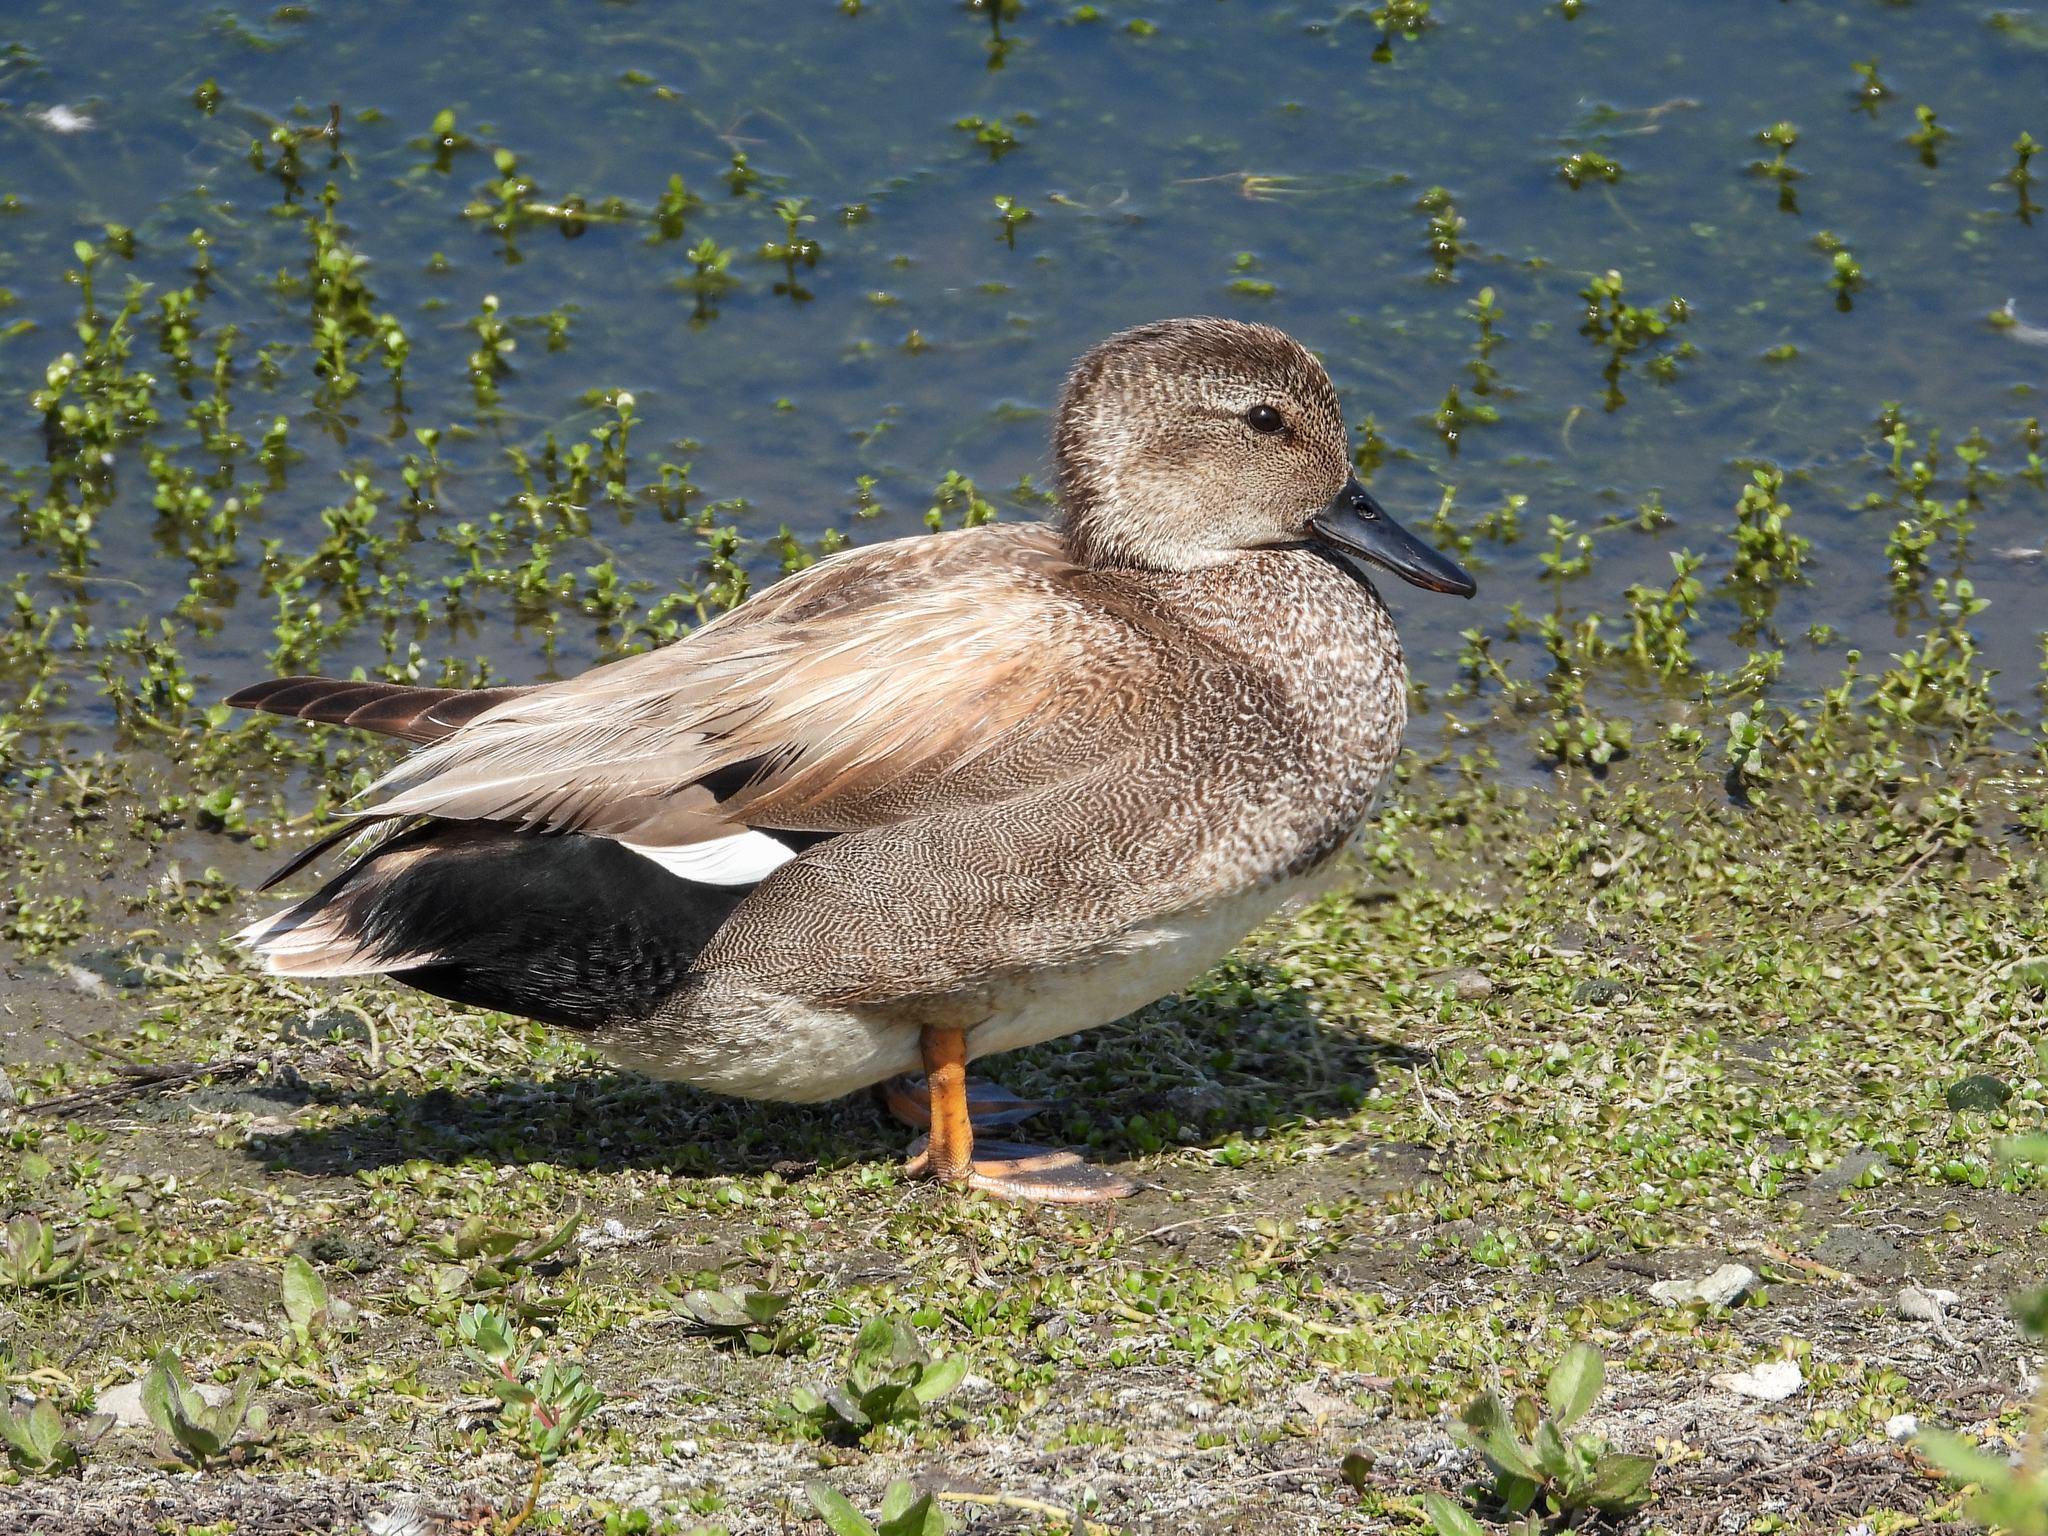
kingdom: Animalia
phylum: Chordata
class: Aves
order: Anseriformes
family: Anatidae
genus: Mareca
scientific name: Mareca strepera
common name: Gadwall
